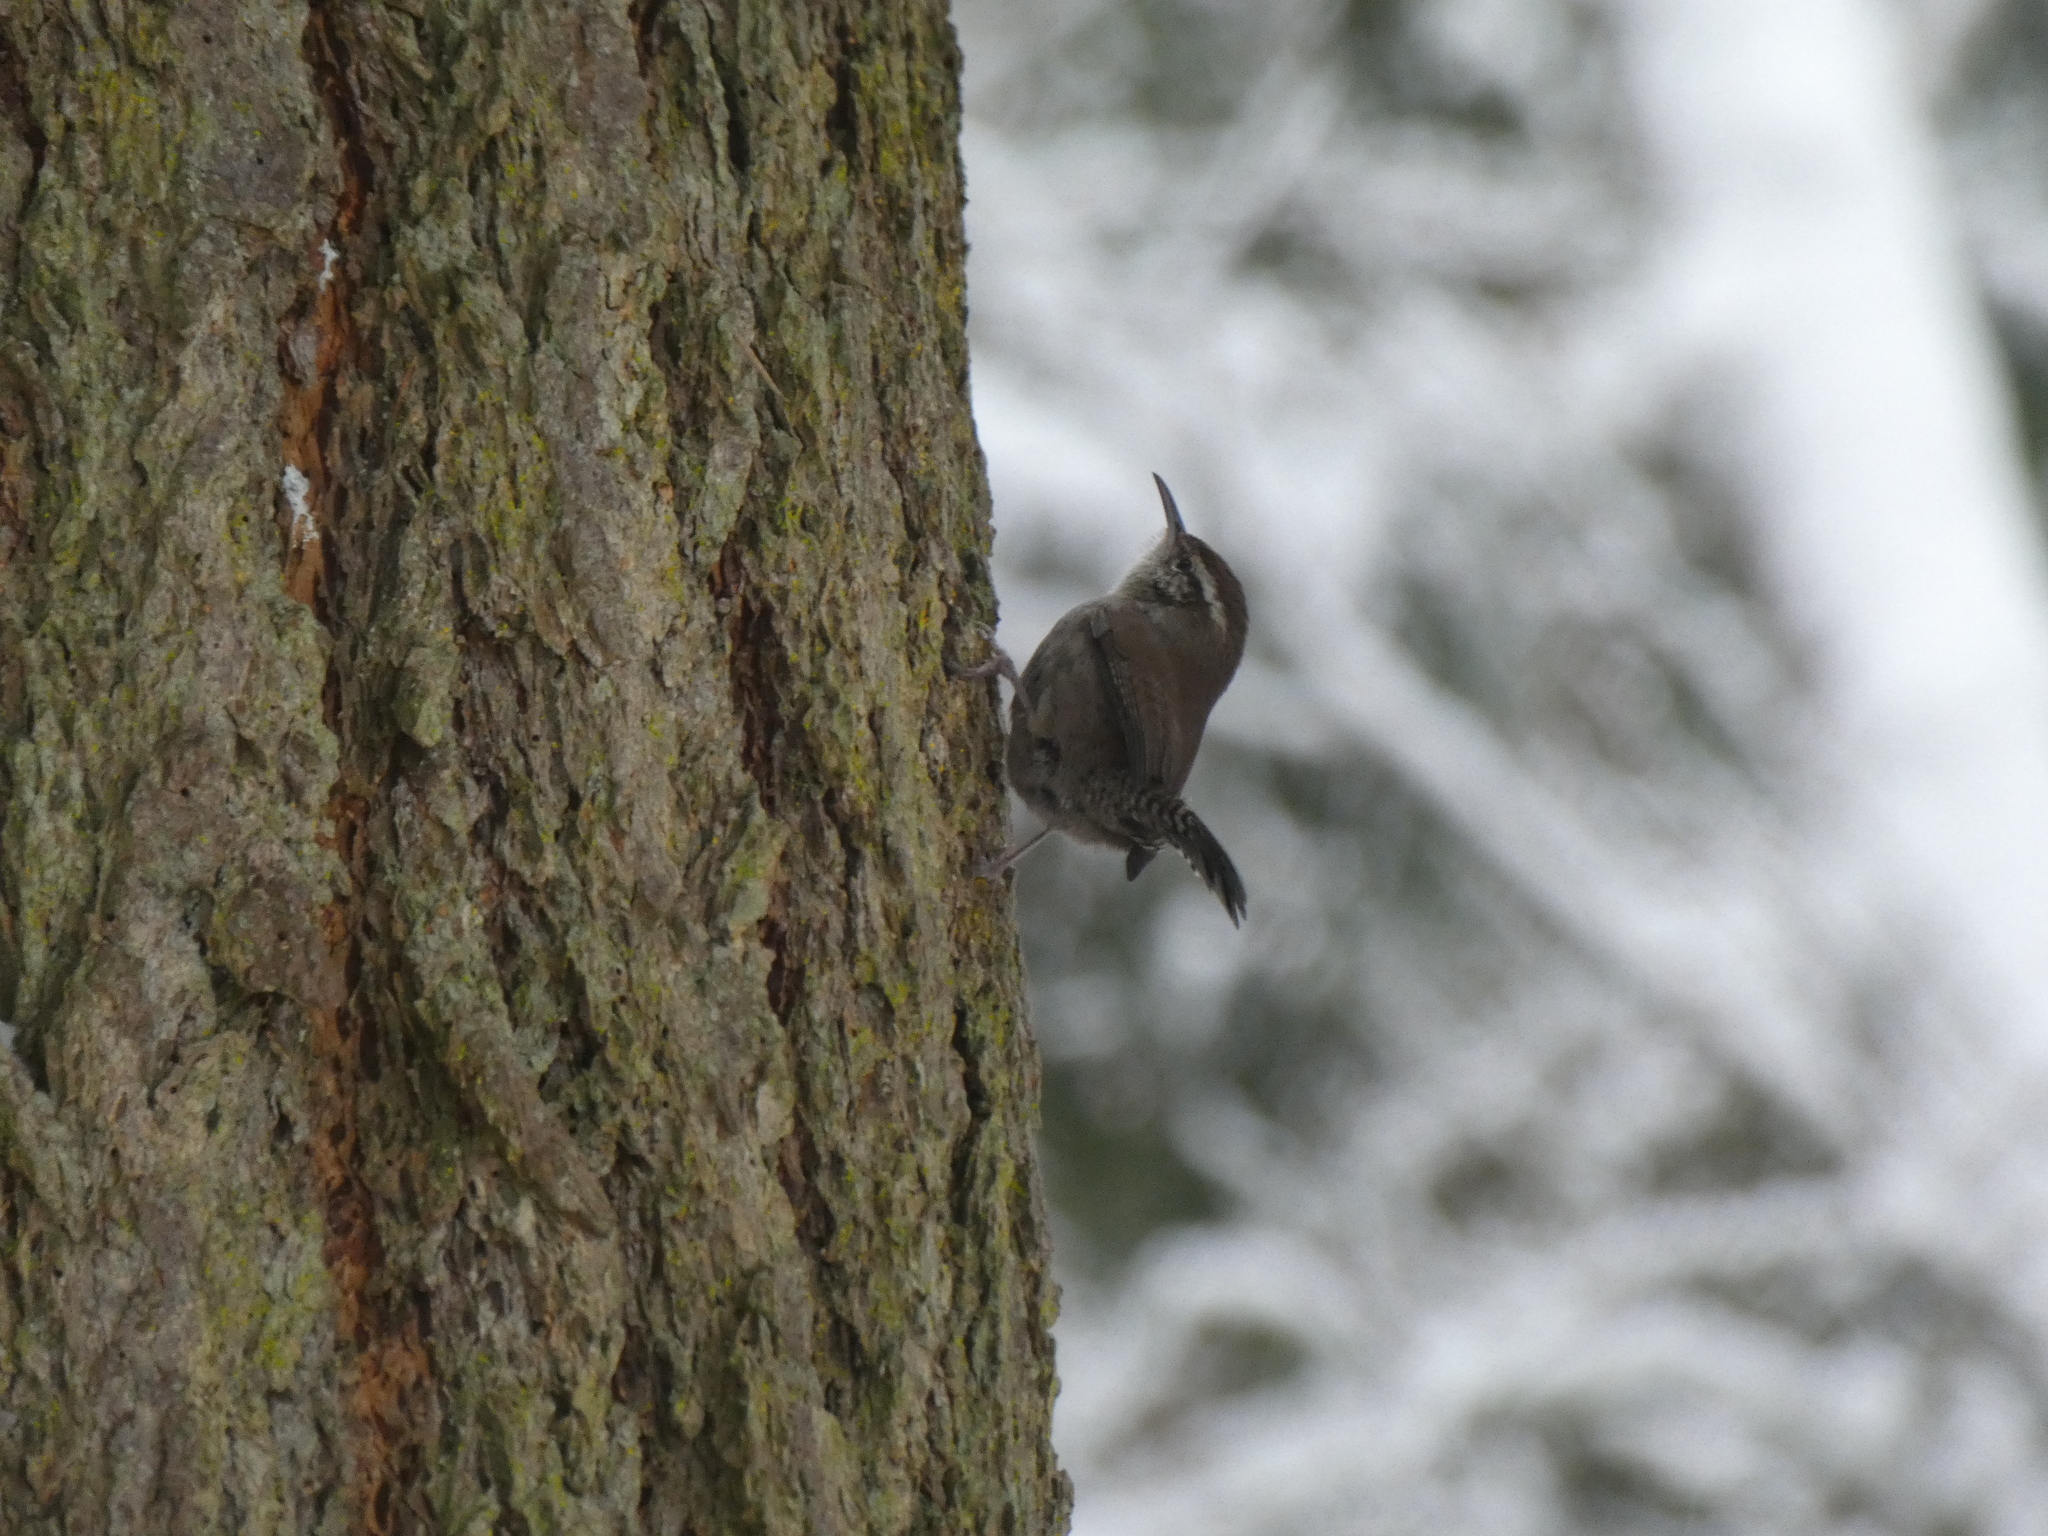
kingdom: Animalia
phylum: Chordata
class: Aves
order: Passeriformes
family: Troglodytidae
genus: Thryomanes
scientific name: Thryomanes bewickii
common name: Bewick's wren
